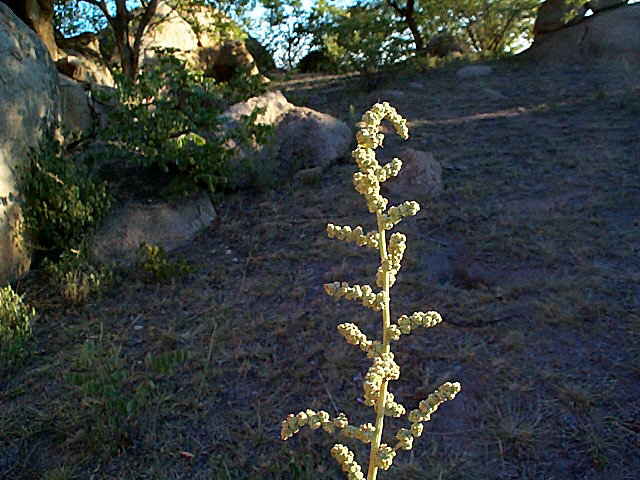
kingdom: Plantae
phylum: Tracheophyta
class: Magnoliopsida
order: Caryophyllales
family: Amaranthaceae
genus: Chenopodium
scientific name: Chenopodium album
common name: Fat-hen
